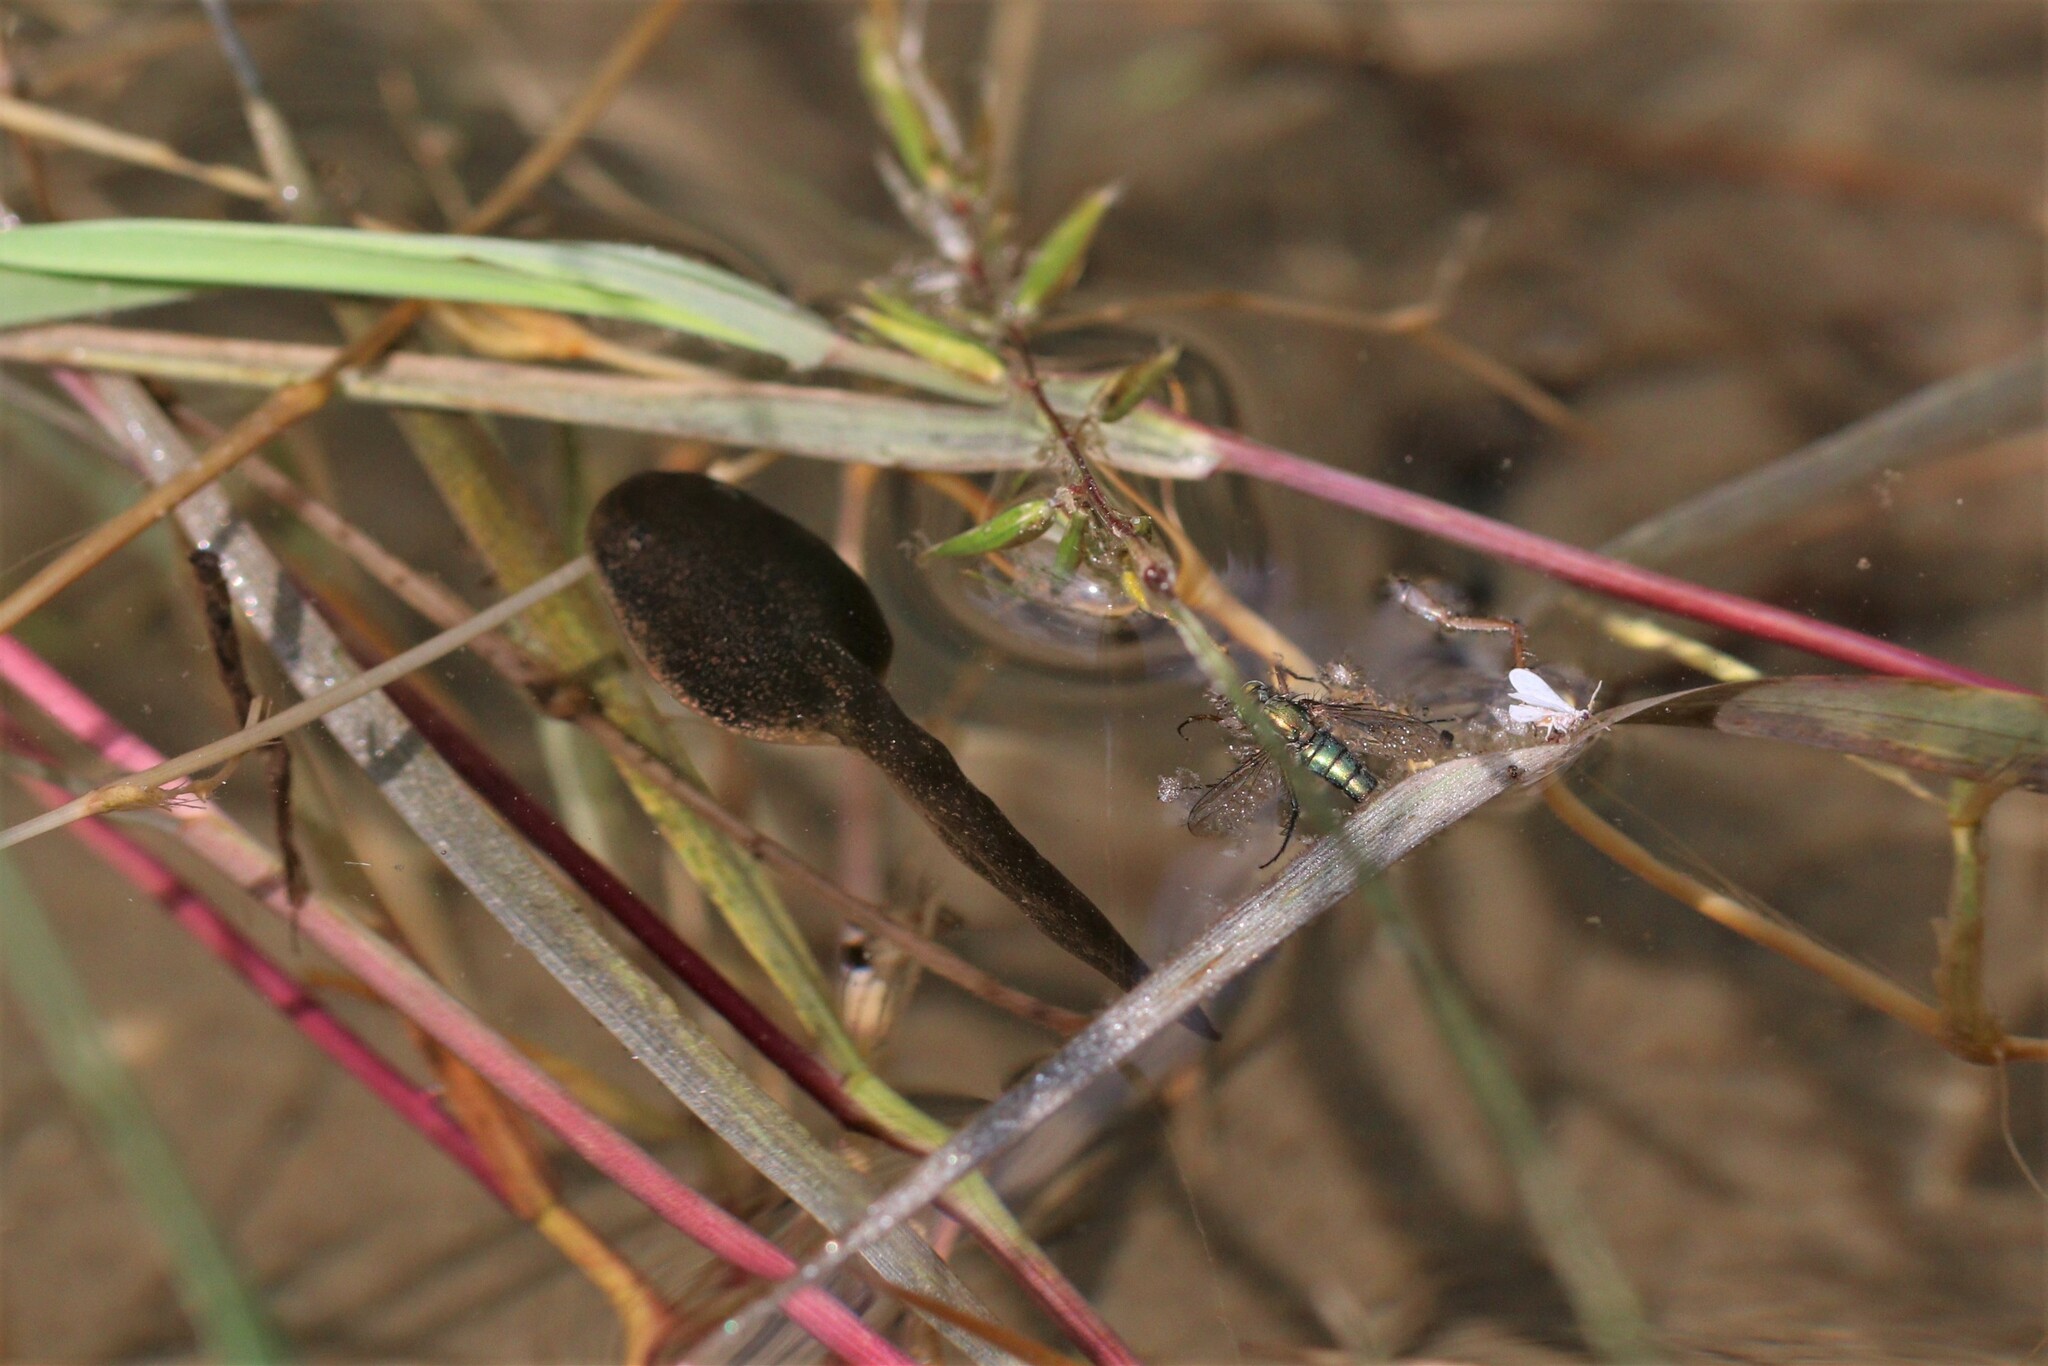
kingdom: Animalia
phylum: Chordata
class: Amphibia
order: Anura
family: Ranidae
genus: Rana
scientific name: Rana temporaria
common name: Common frog
